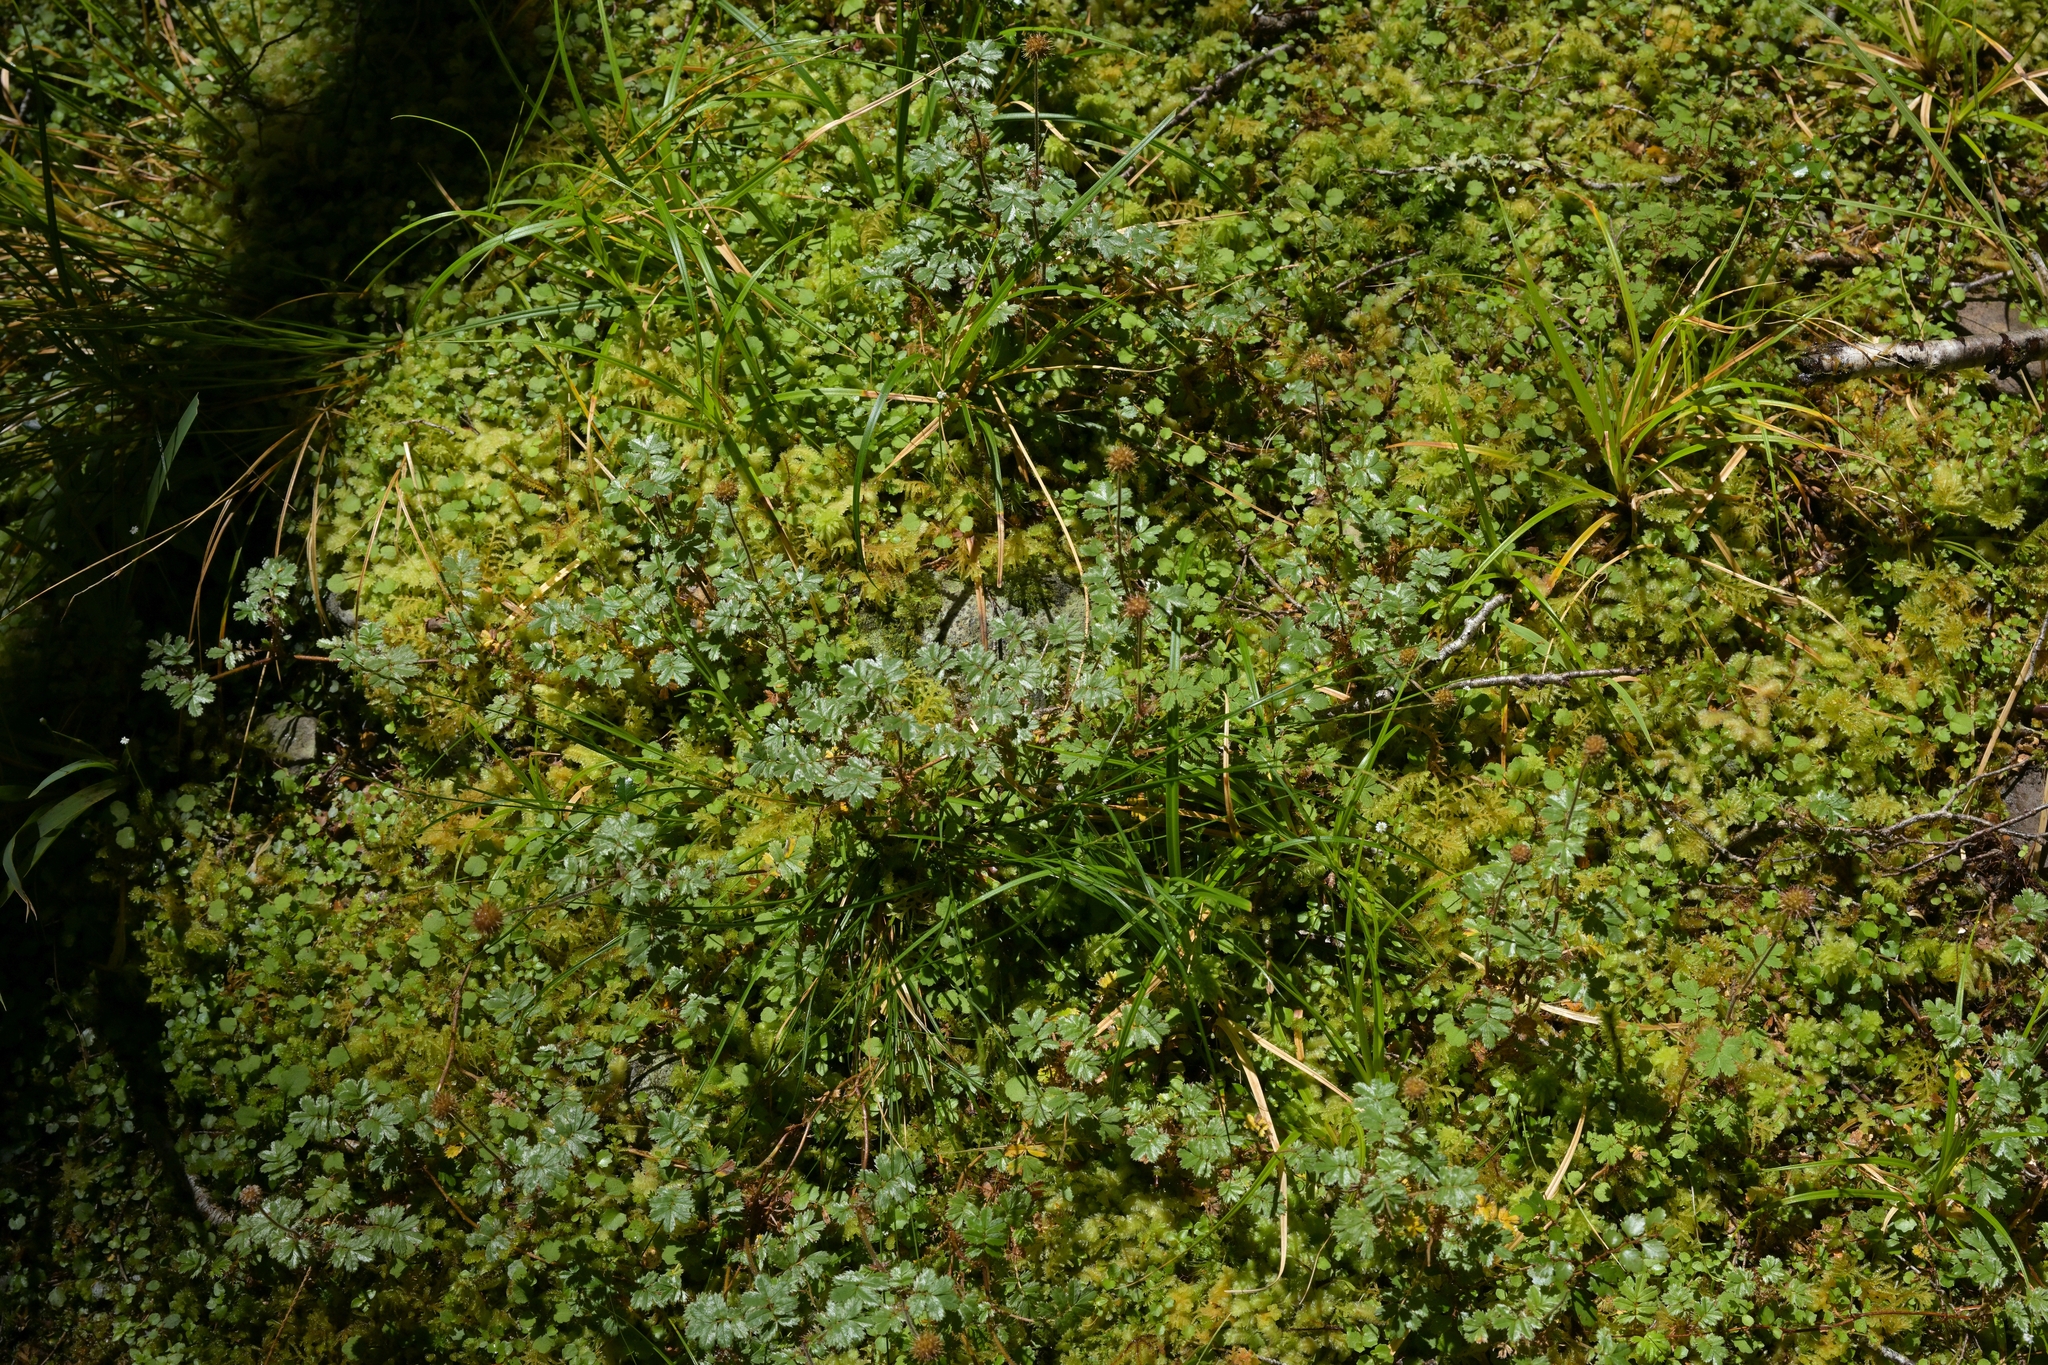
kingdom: Plantae
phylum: Tracheophyta
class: Magnoliopsida
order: Rosales
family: Rosaceae
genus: Acaena
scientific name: Acaena anserinifolia
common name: Bronze pirri-pirri-bur
